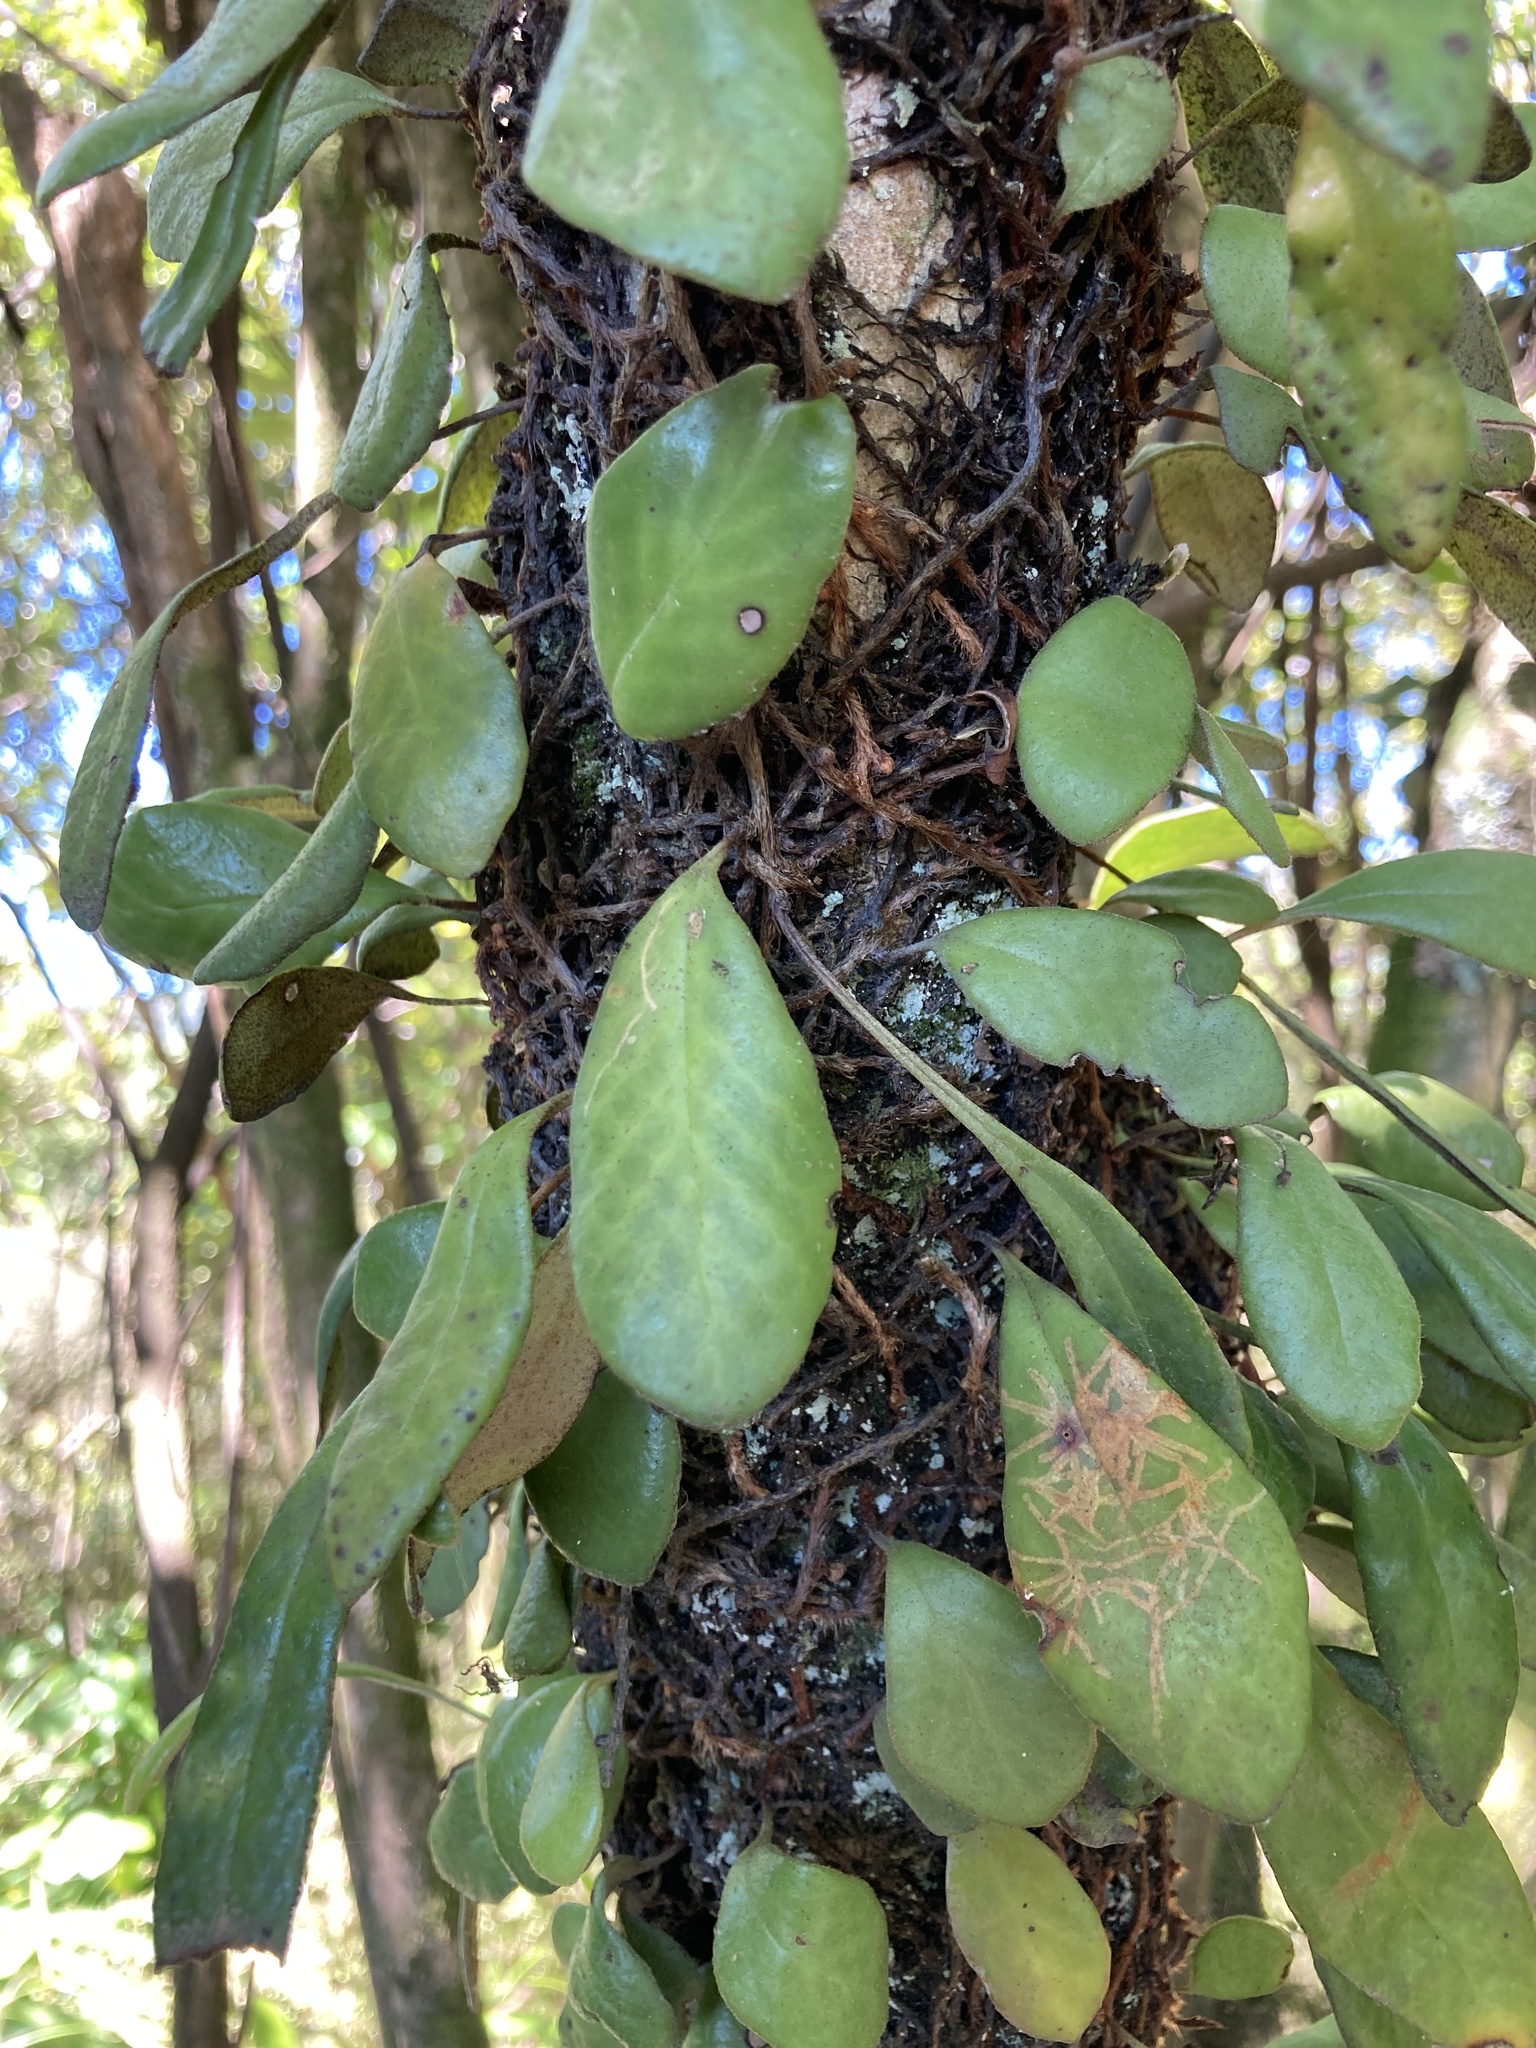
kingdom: Plantae
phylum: Tracheophyta
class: Polypodiopsida
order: Polypodiales
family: Polypodiaceae
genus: Pyrrosia
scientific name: Pyrrosia eleagnifolia
